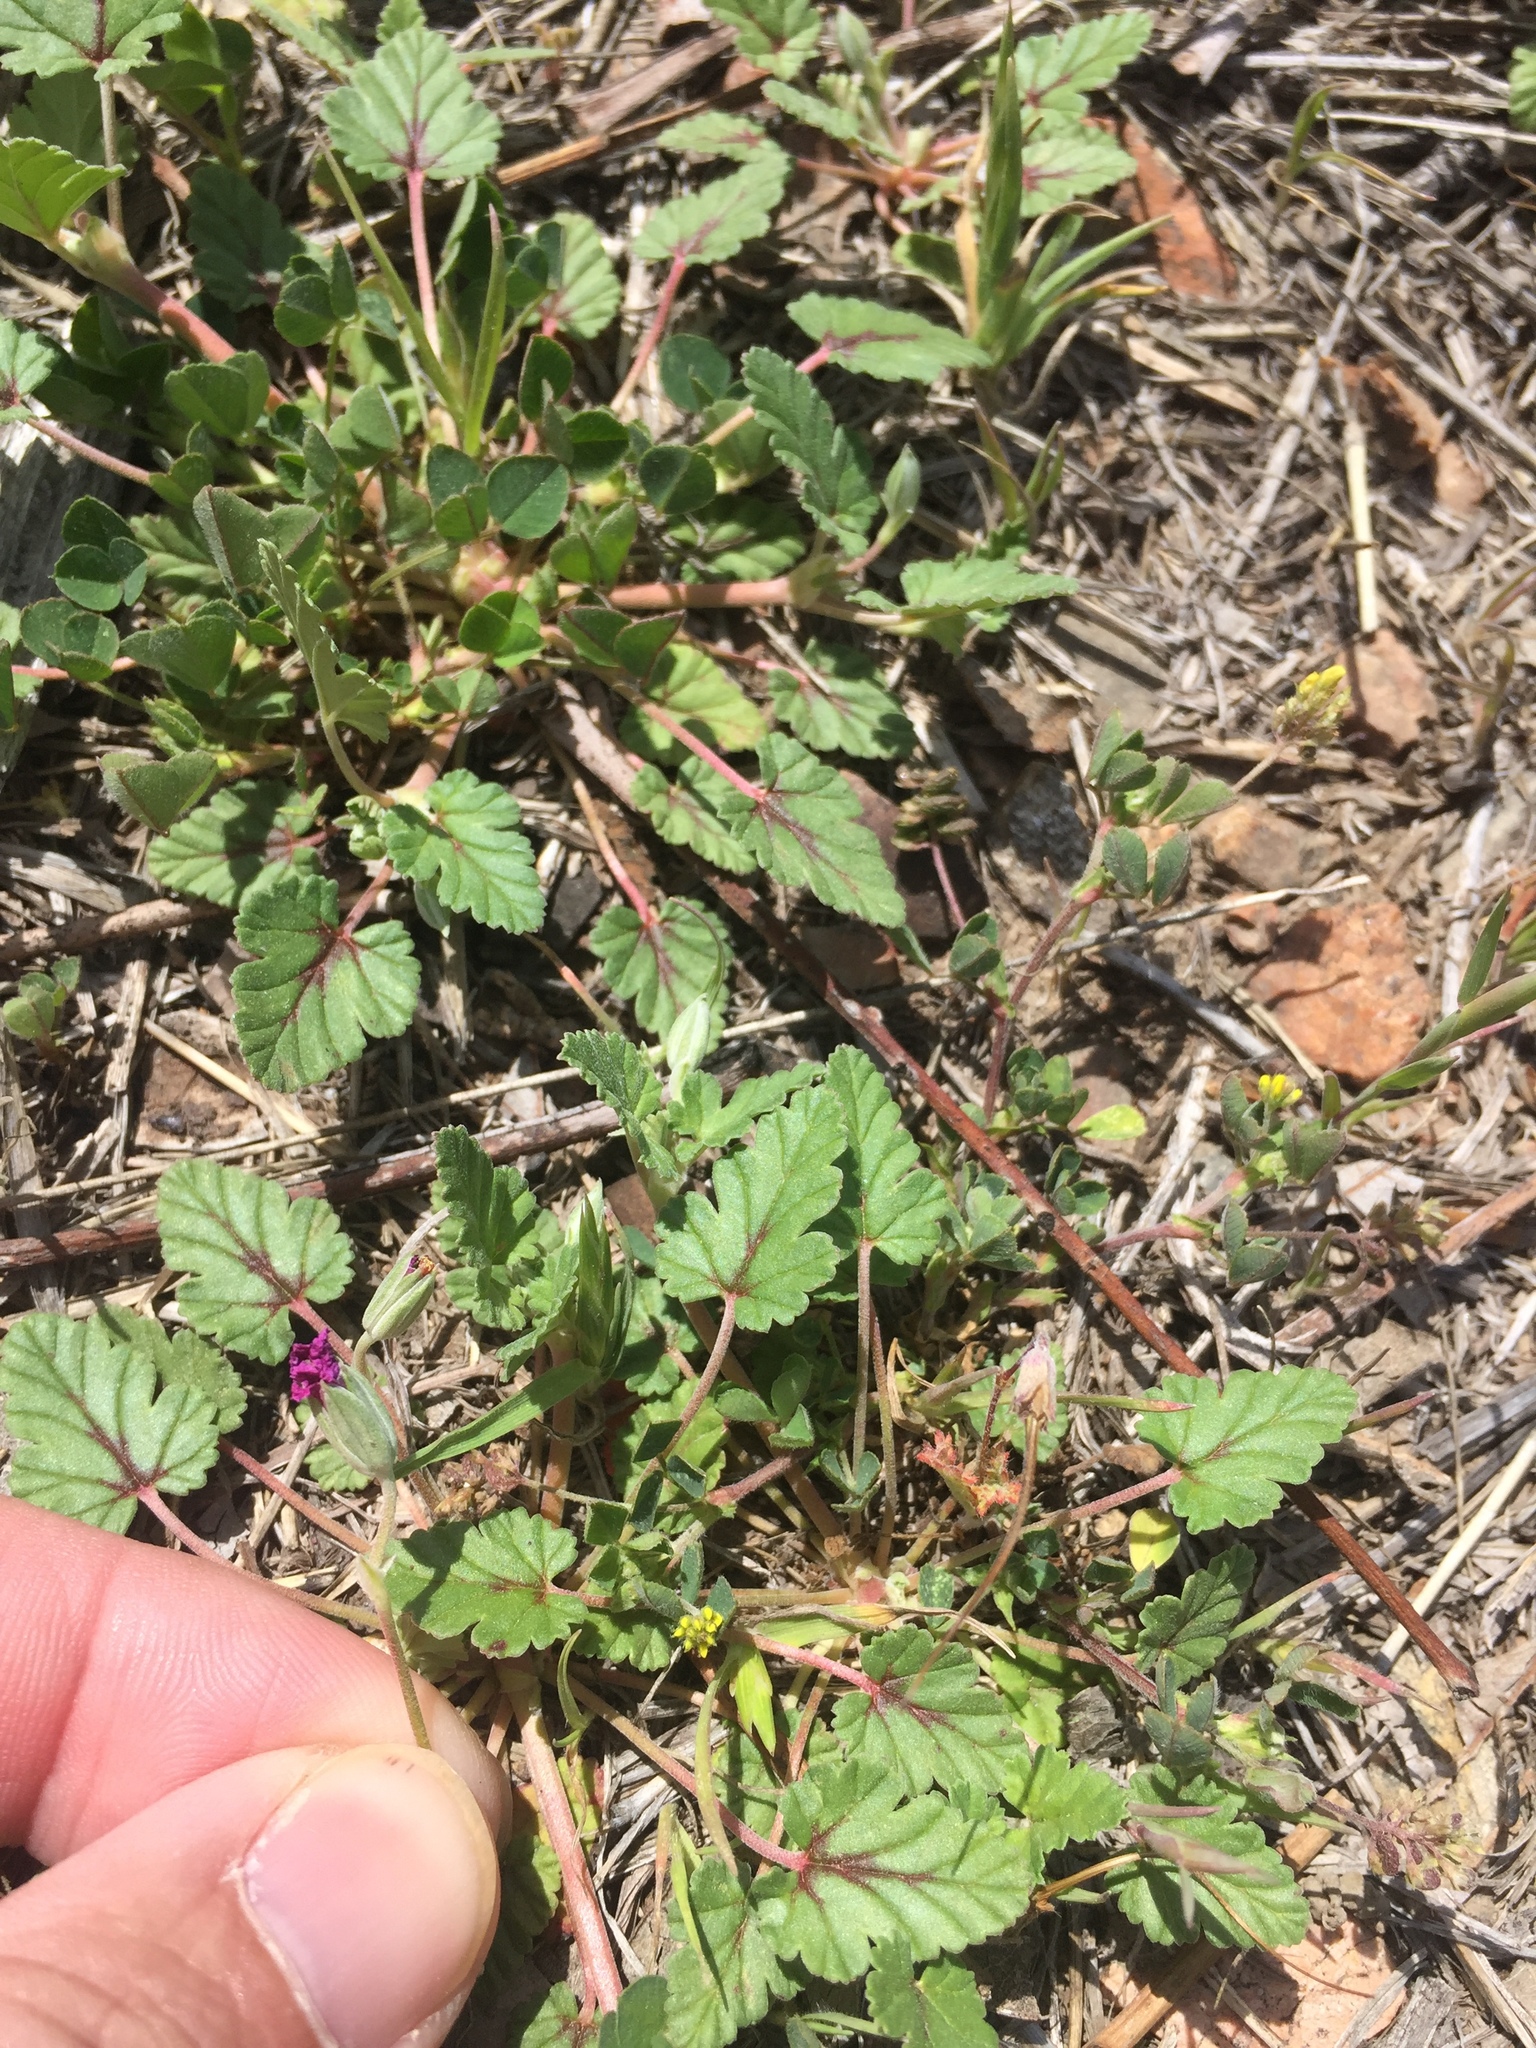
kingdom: Plantae
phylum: Tracheophyta
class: Magnoliopsida
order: Geraniales
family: Geraniaceae
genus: Erodium
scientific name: Erodium texanum
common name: Texas stork's-bill
